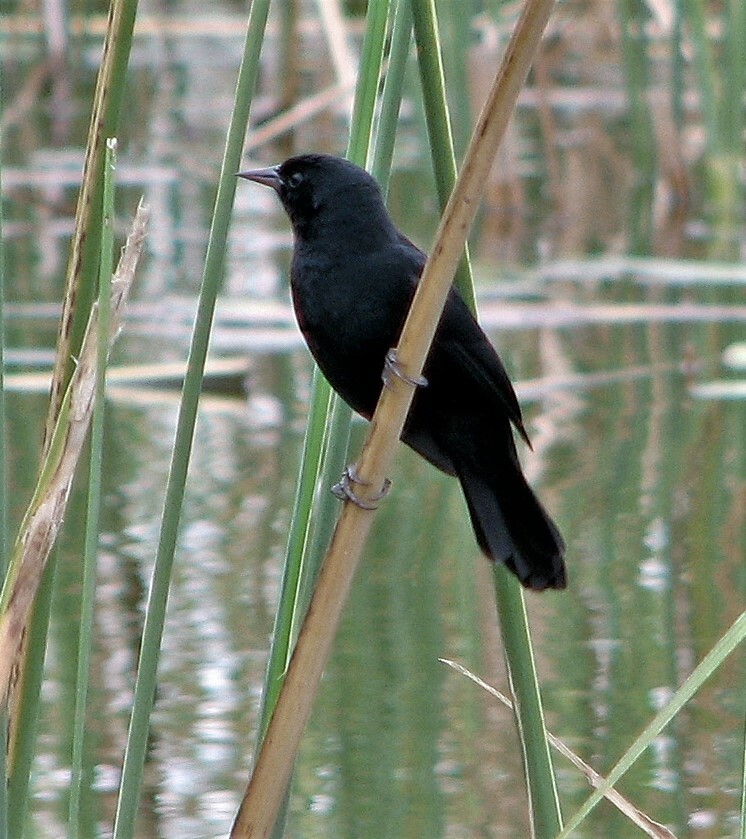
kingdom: Animalia
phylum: Chordata
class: Aves
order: Passeriformes
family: Icteridae
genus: Agelasticus
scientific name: Agelasticus cyanopus
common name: Unicolored blackbird
